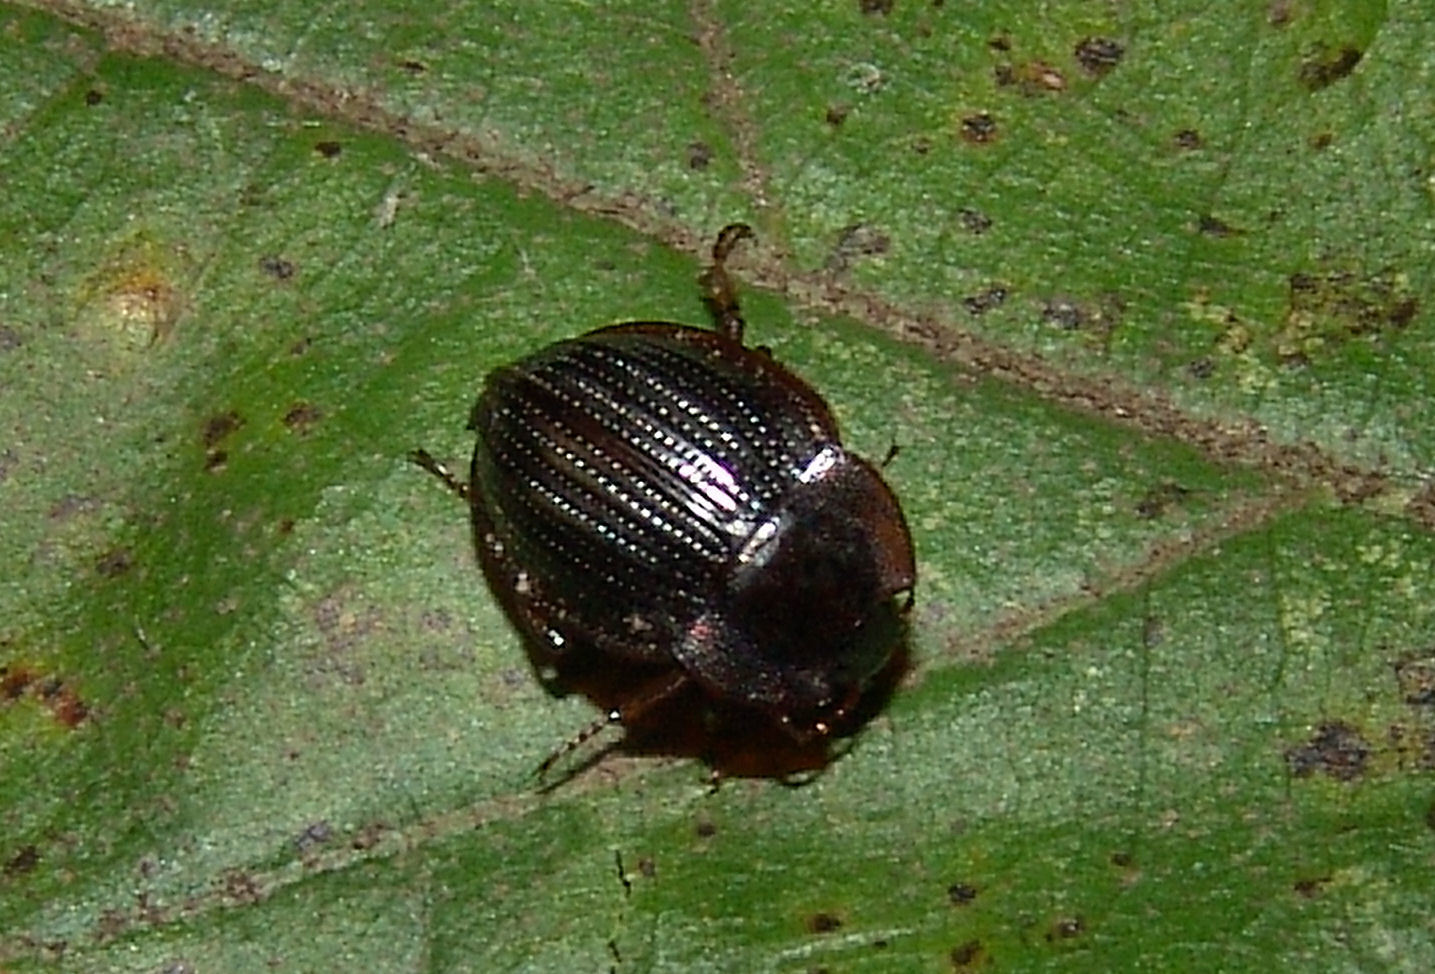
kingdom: Animalia
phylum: Arthropoda
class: Insecta
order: Coleoptera
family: Agyrtidae
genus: Necrophilus
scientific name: Necrophilus pettitii
